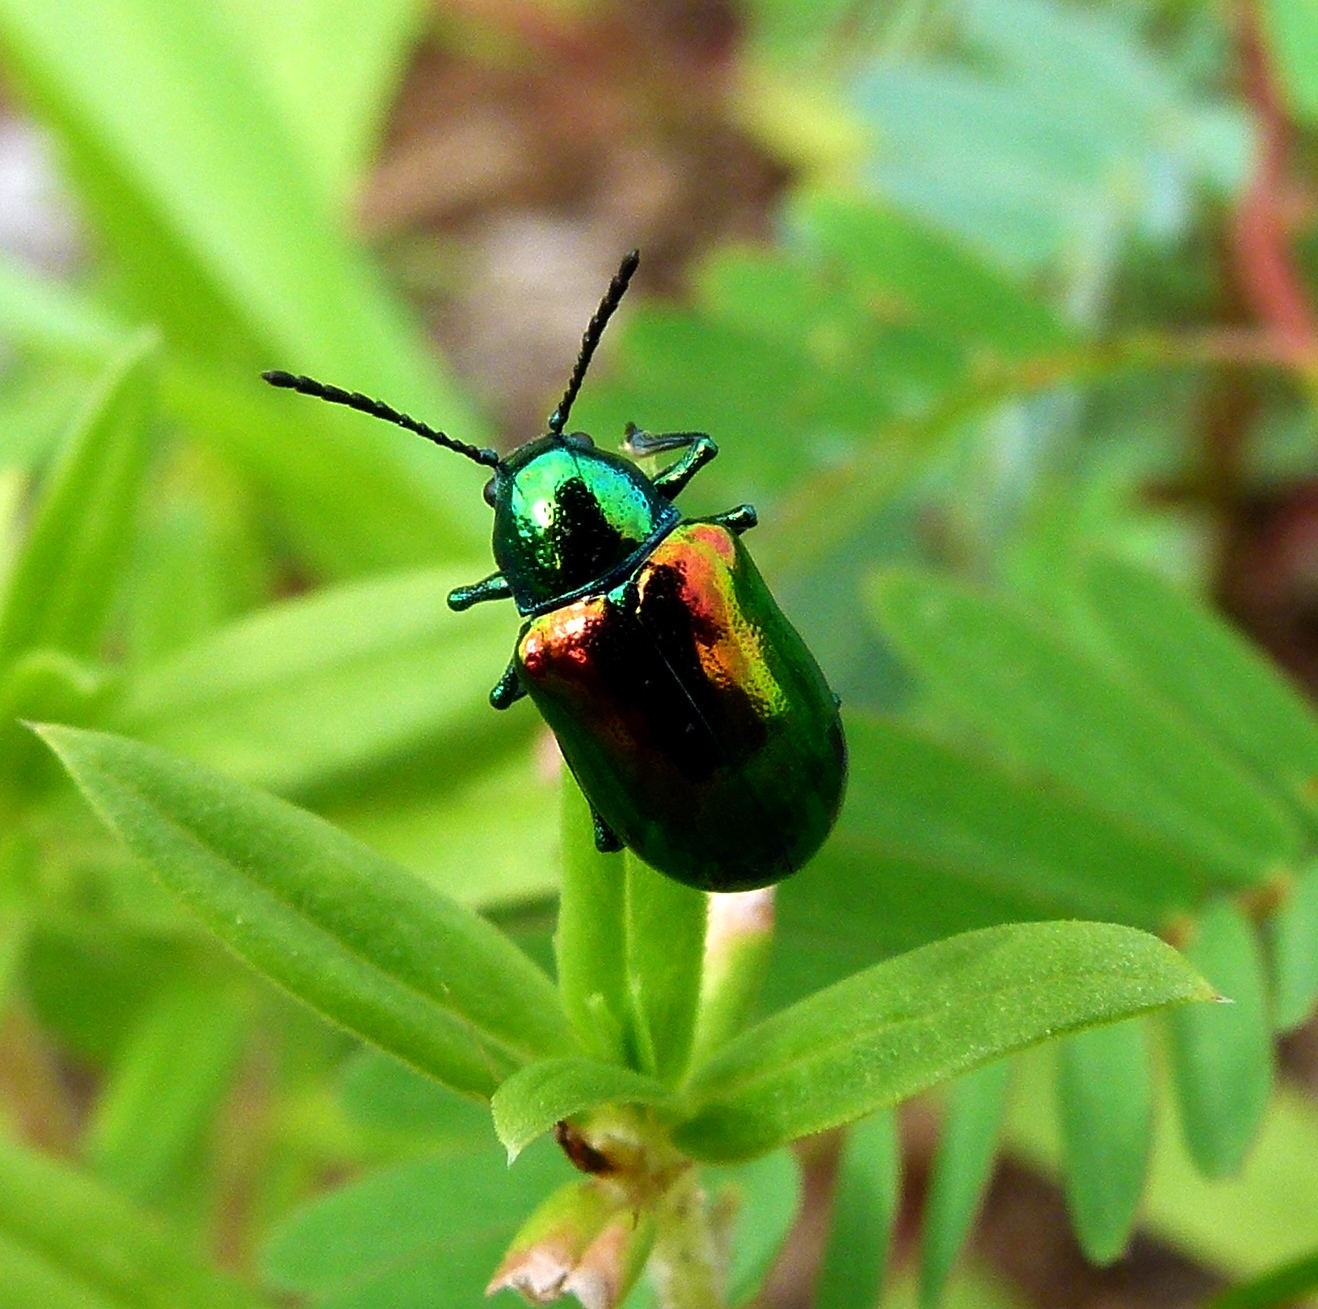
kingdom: Animalia
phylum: Arthropoda
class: Insecta
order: Coleoptera
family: Chrysomelidae
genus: Chrysochus
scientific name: Chrysochus auratus
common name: Dogbane leaf beetle
